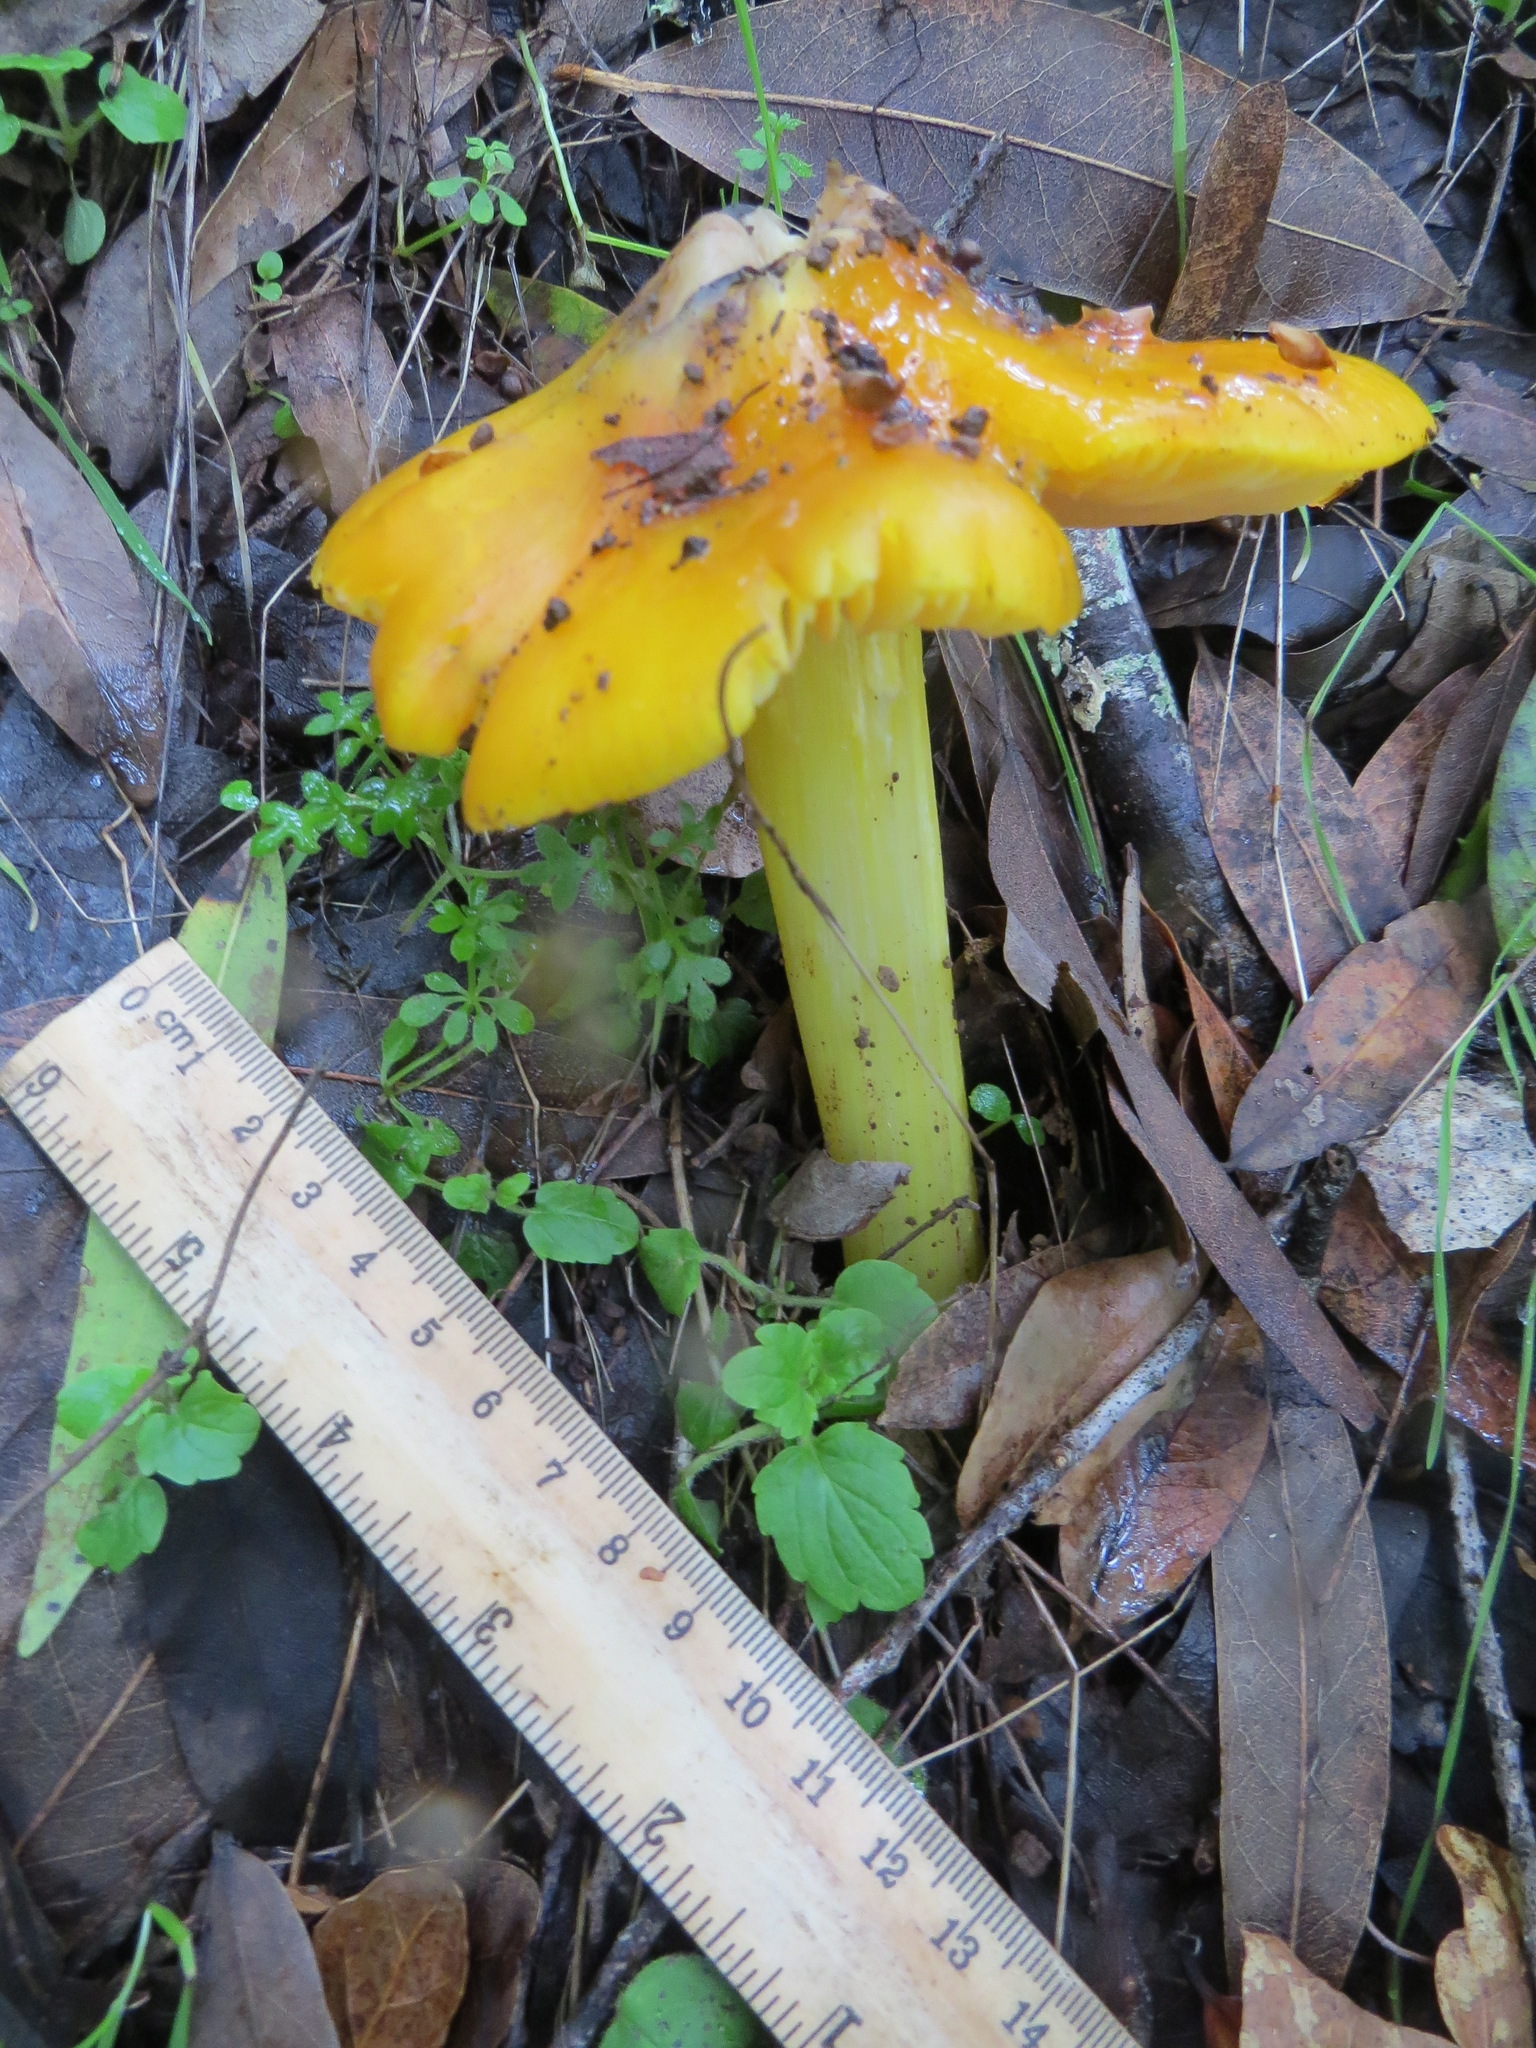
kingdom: Fungi
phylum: Basidiomycota
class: Agaricomycetes
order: Agaricales
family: Hygrophoraceae
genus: Hygrocybe
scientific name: Hygrocybe acutoconica
